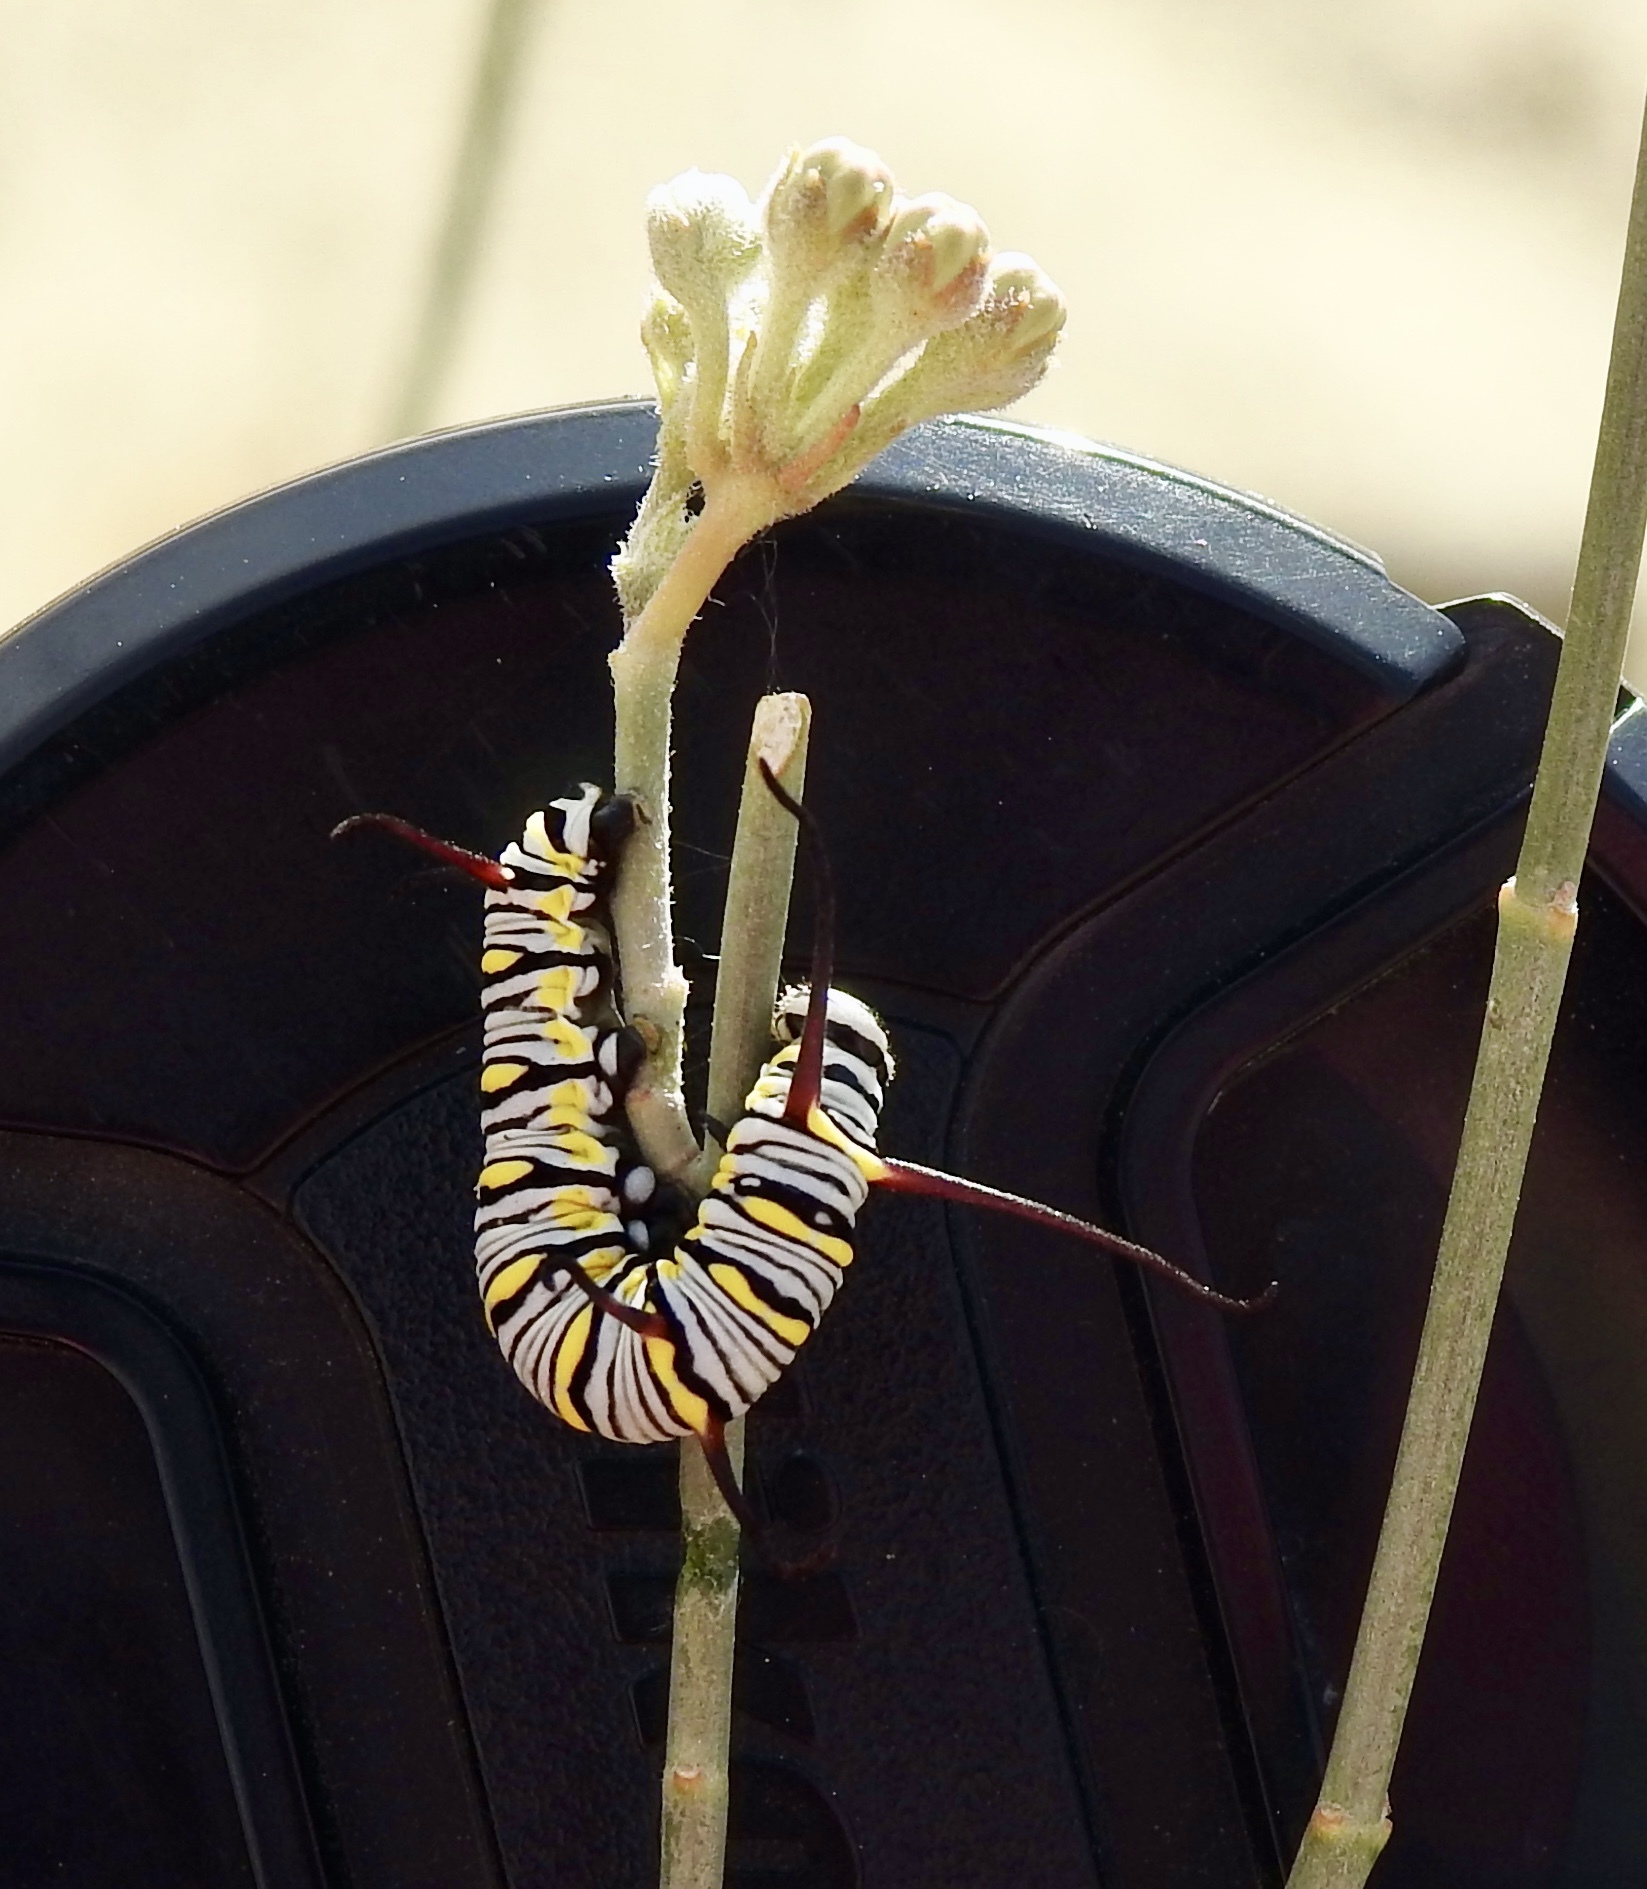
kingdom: Animalia
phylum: Arthropoda
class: Insecta
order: Lepidoptera
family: Nymphalidae
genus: Danaus
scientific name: Danaus gilippus
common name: Queen
